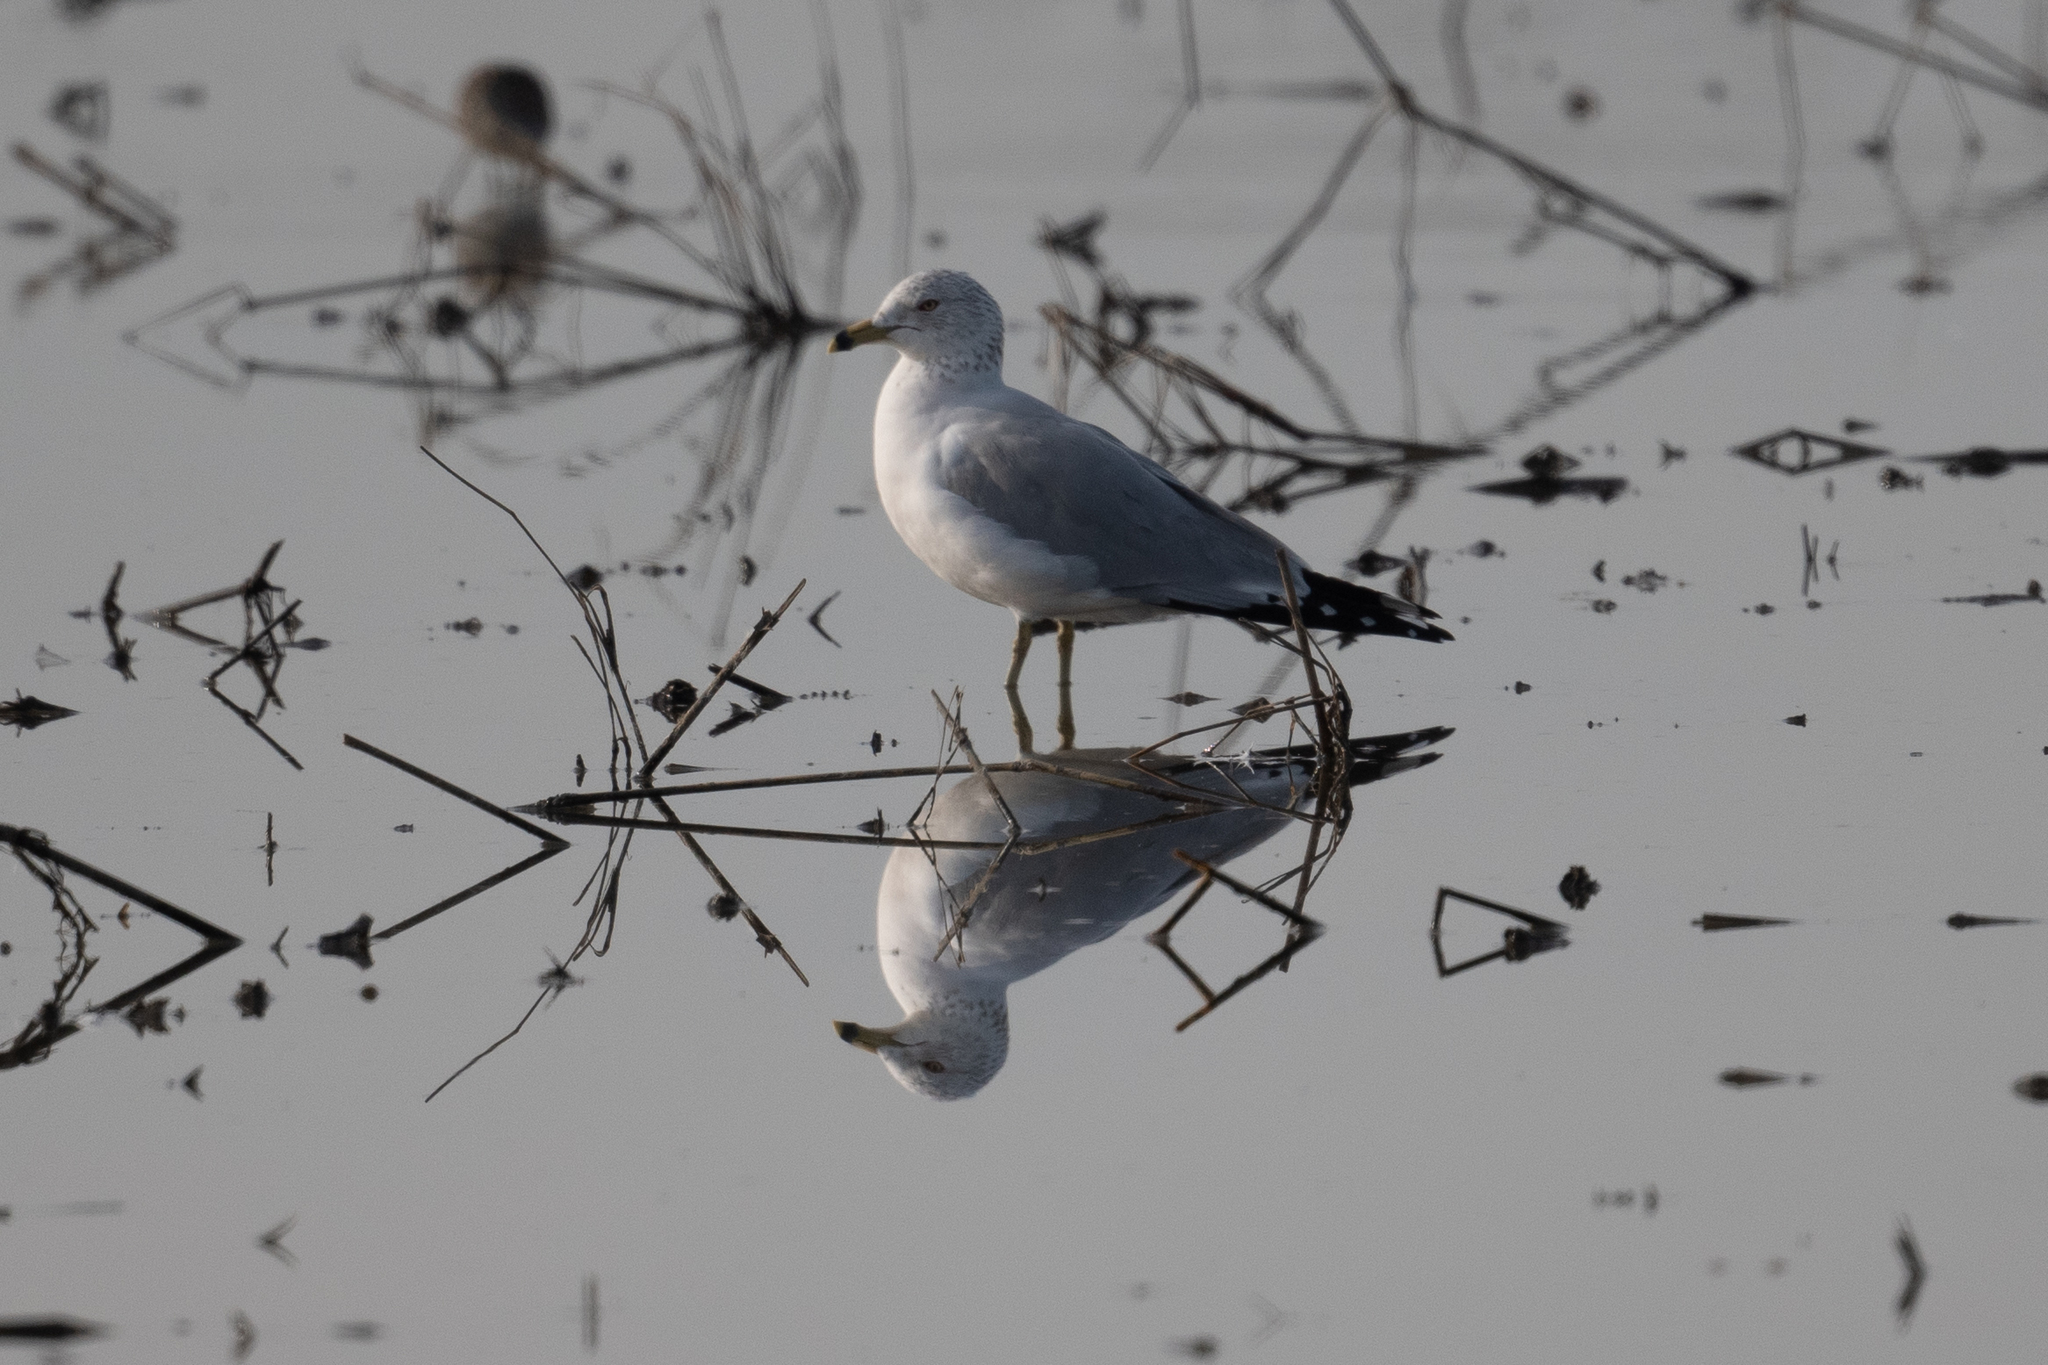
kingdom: Animalia
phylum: Chordata
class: Aves
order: Charadriiformes
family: Laridae
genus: Larus
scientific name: Larus delawarensis
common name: Ring-billed gull
